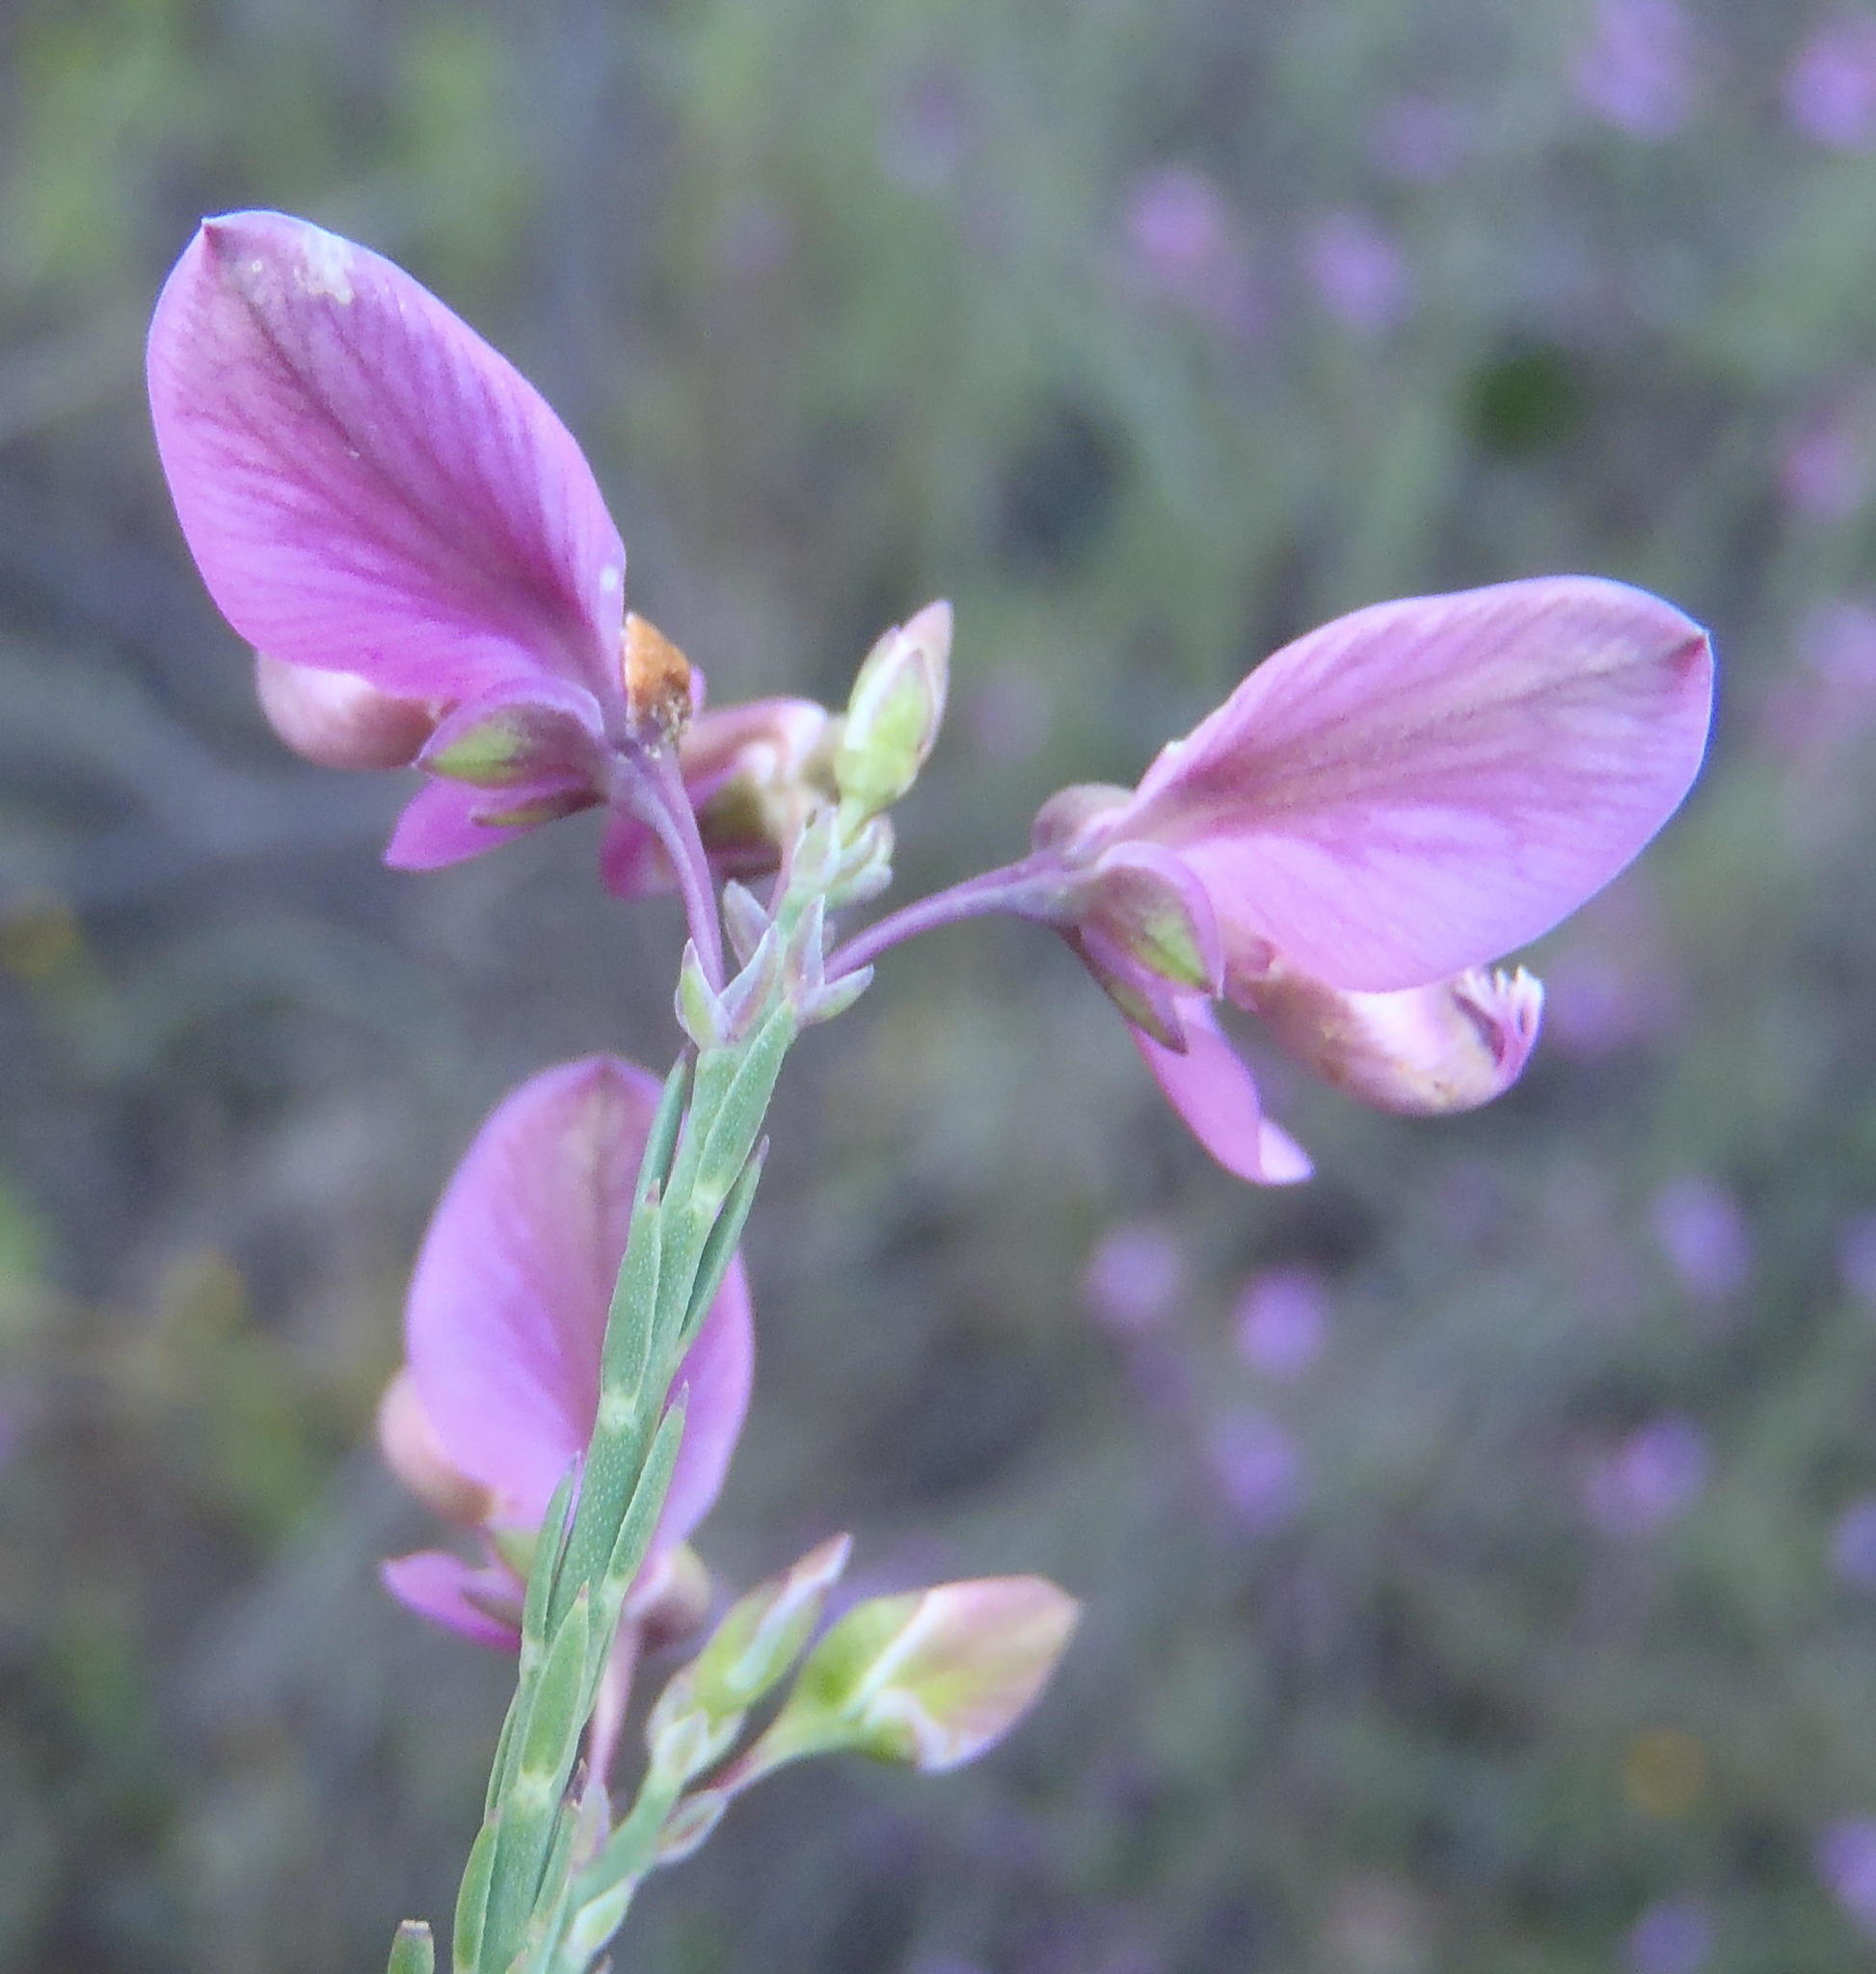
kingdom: Plantae
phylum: Tracheophyta
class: Magnoliopsida
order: Fabales
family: Polygalaceae
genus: Polygala
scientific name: Polygala microlopha
